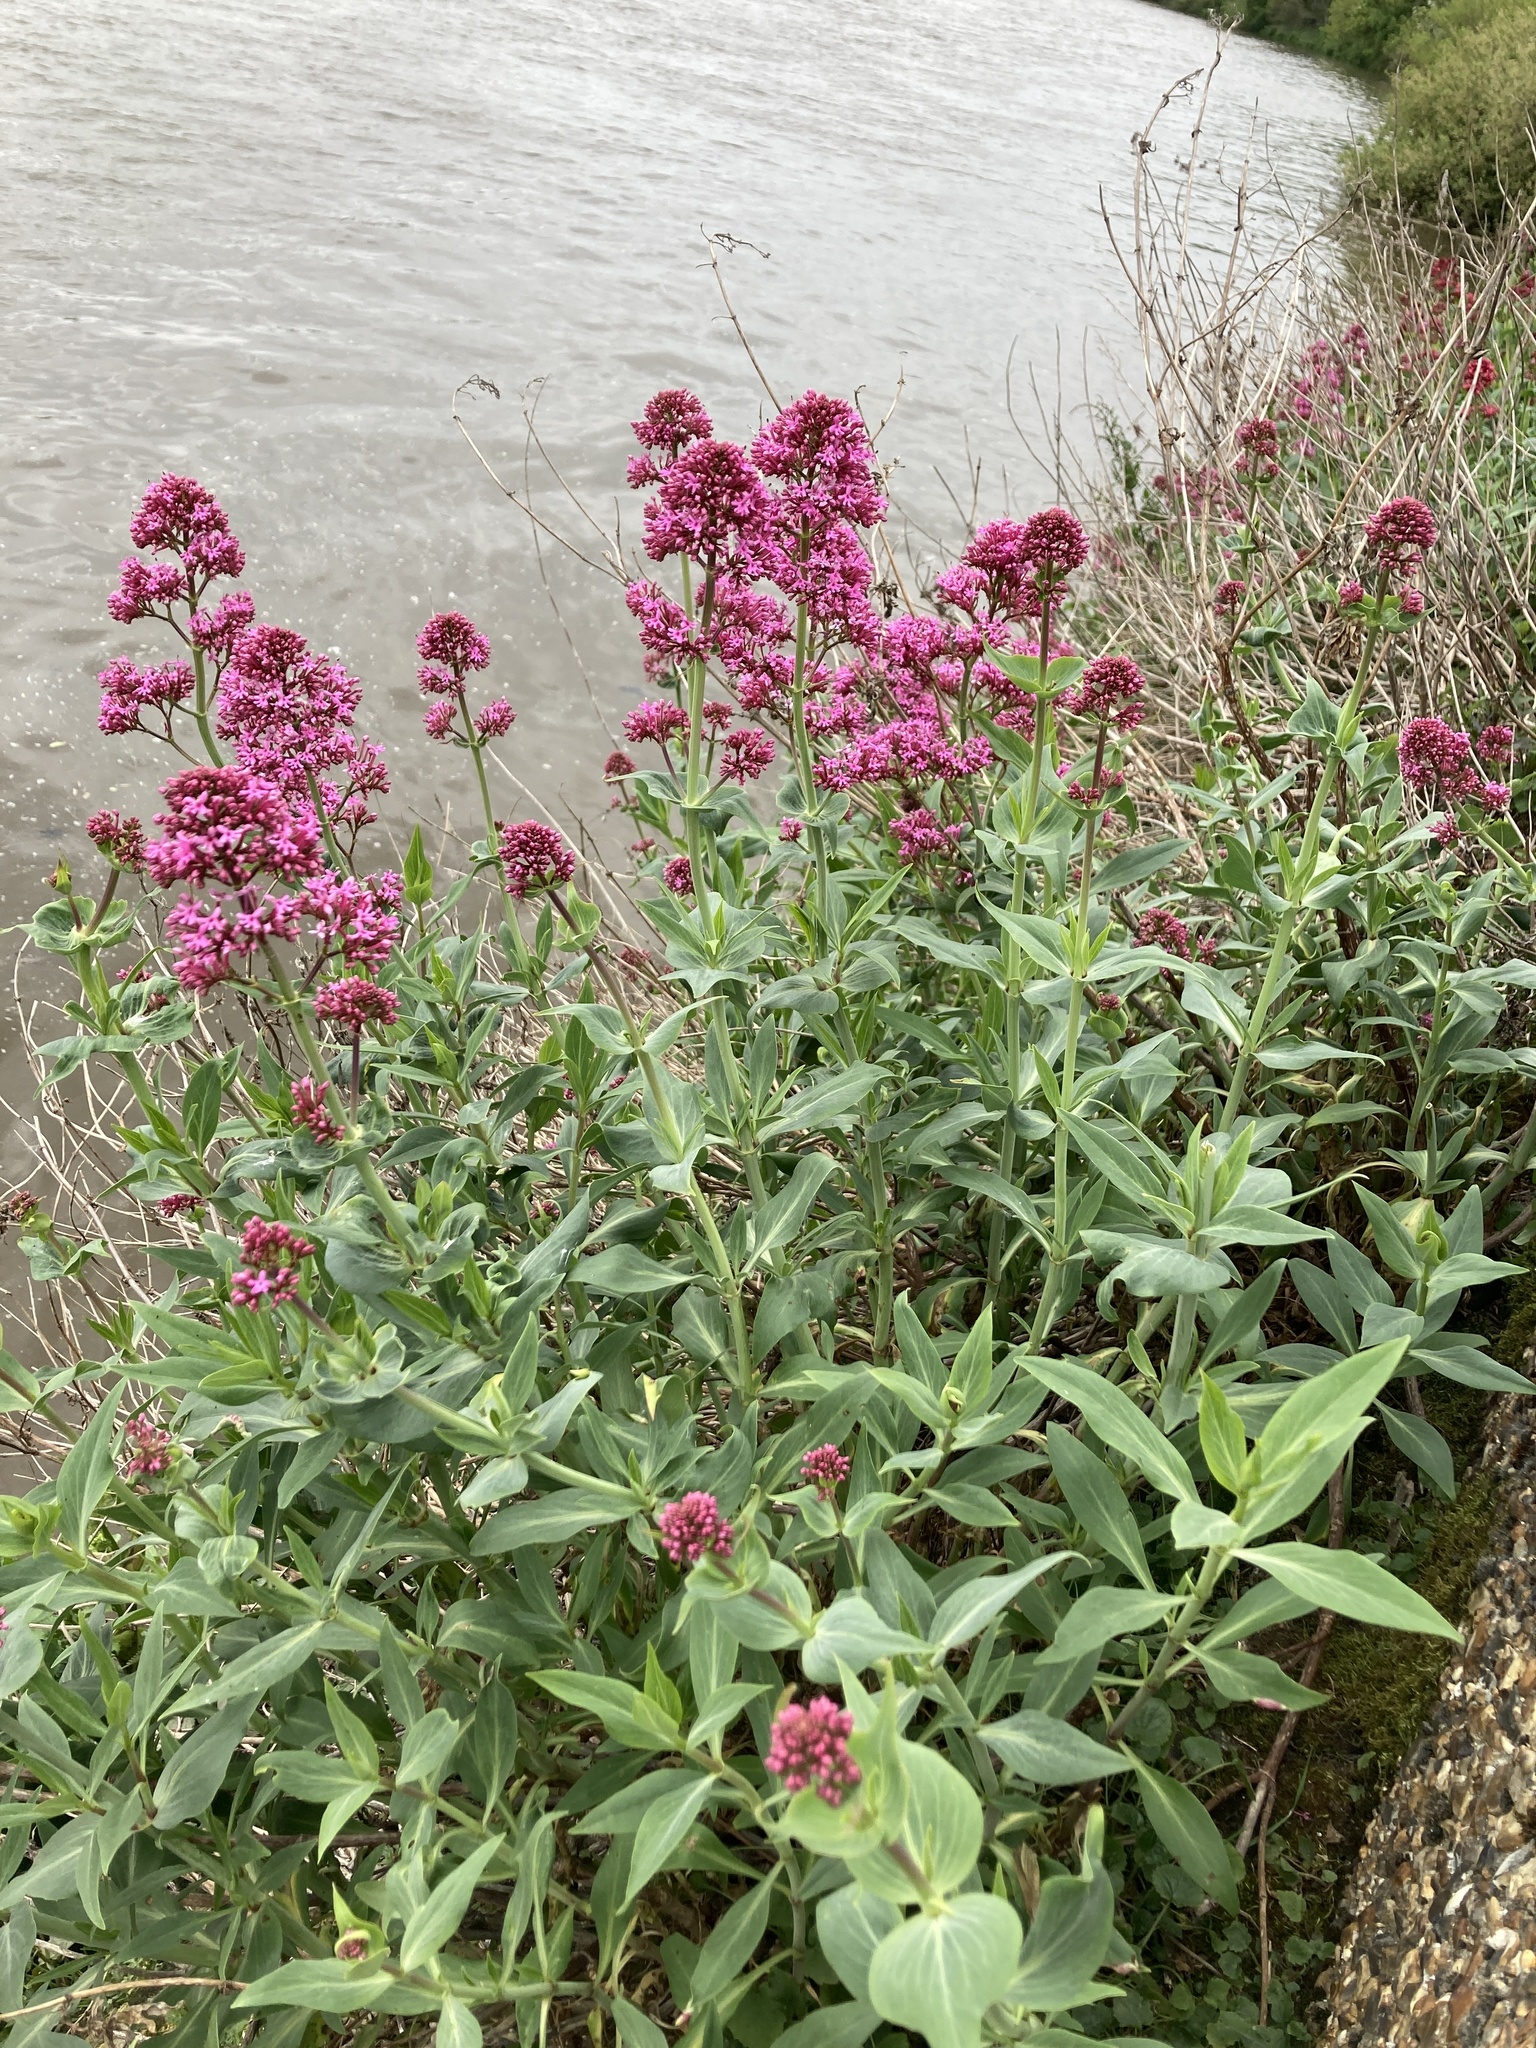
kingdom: Plantae
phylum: Tracheophyta
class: Magnoliopsida
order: Dipsacales
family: Caprifoliaceae
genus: Centranthus
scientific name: Centranthus ruber
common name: Red valerian
